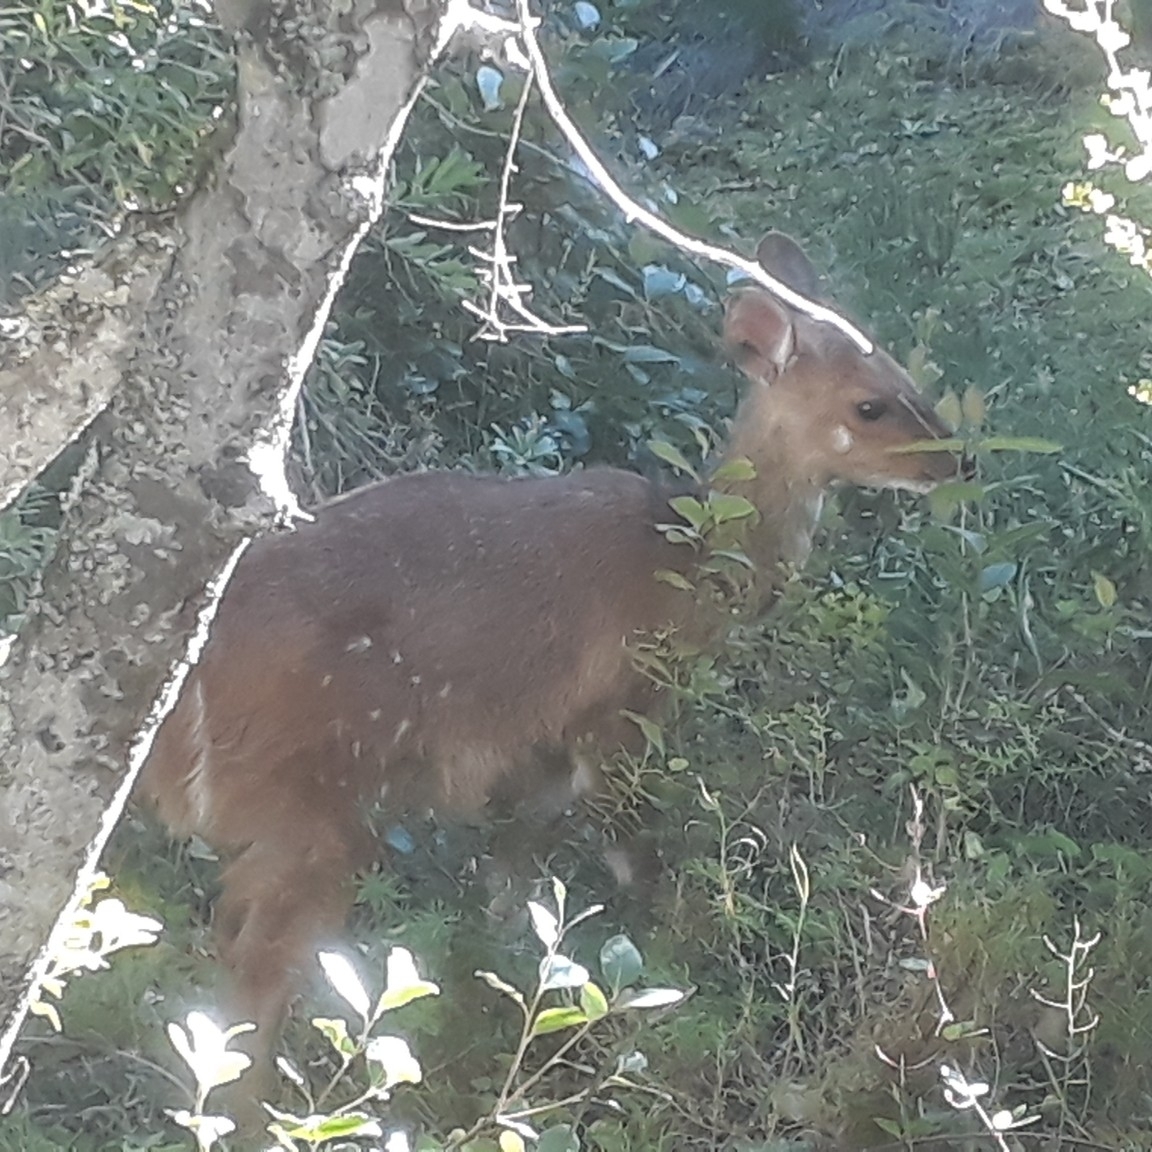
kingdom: Animalia
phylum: Chordata
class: Mammalia
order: Artiodactyla
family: Bovidae
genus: Tragelaphus
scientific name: Tragelaphus scriptus
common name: Bushbuck
